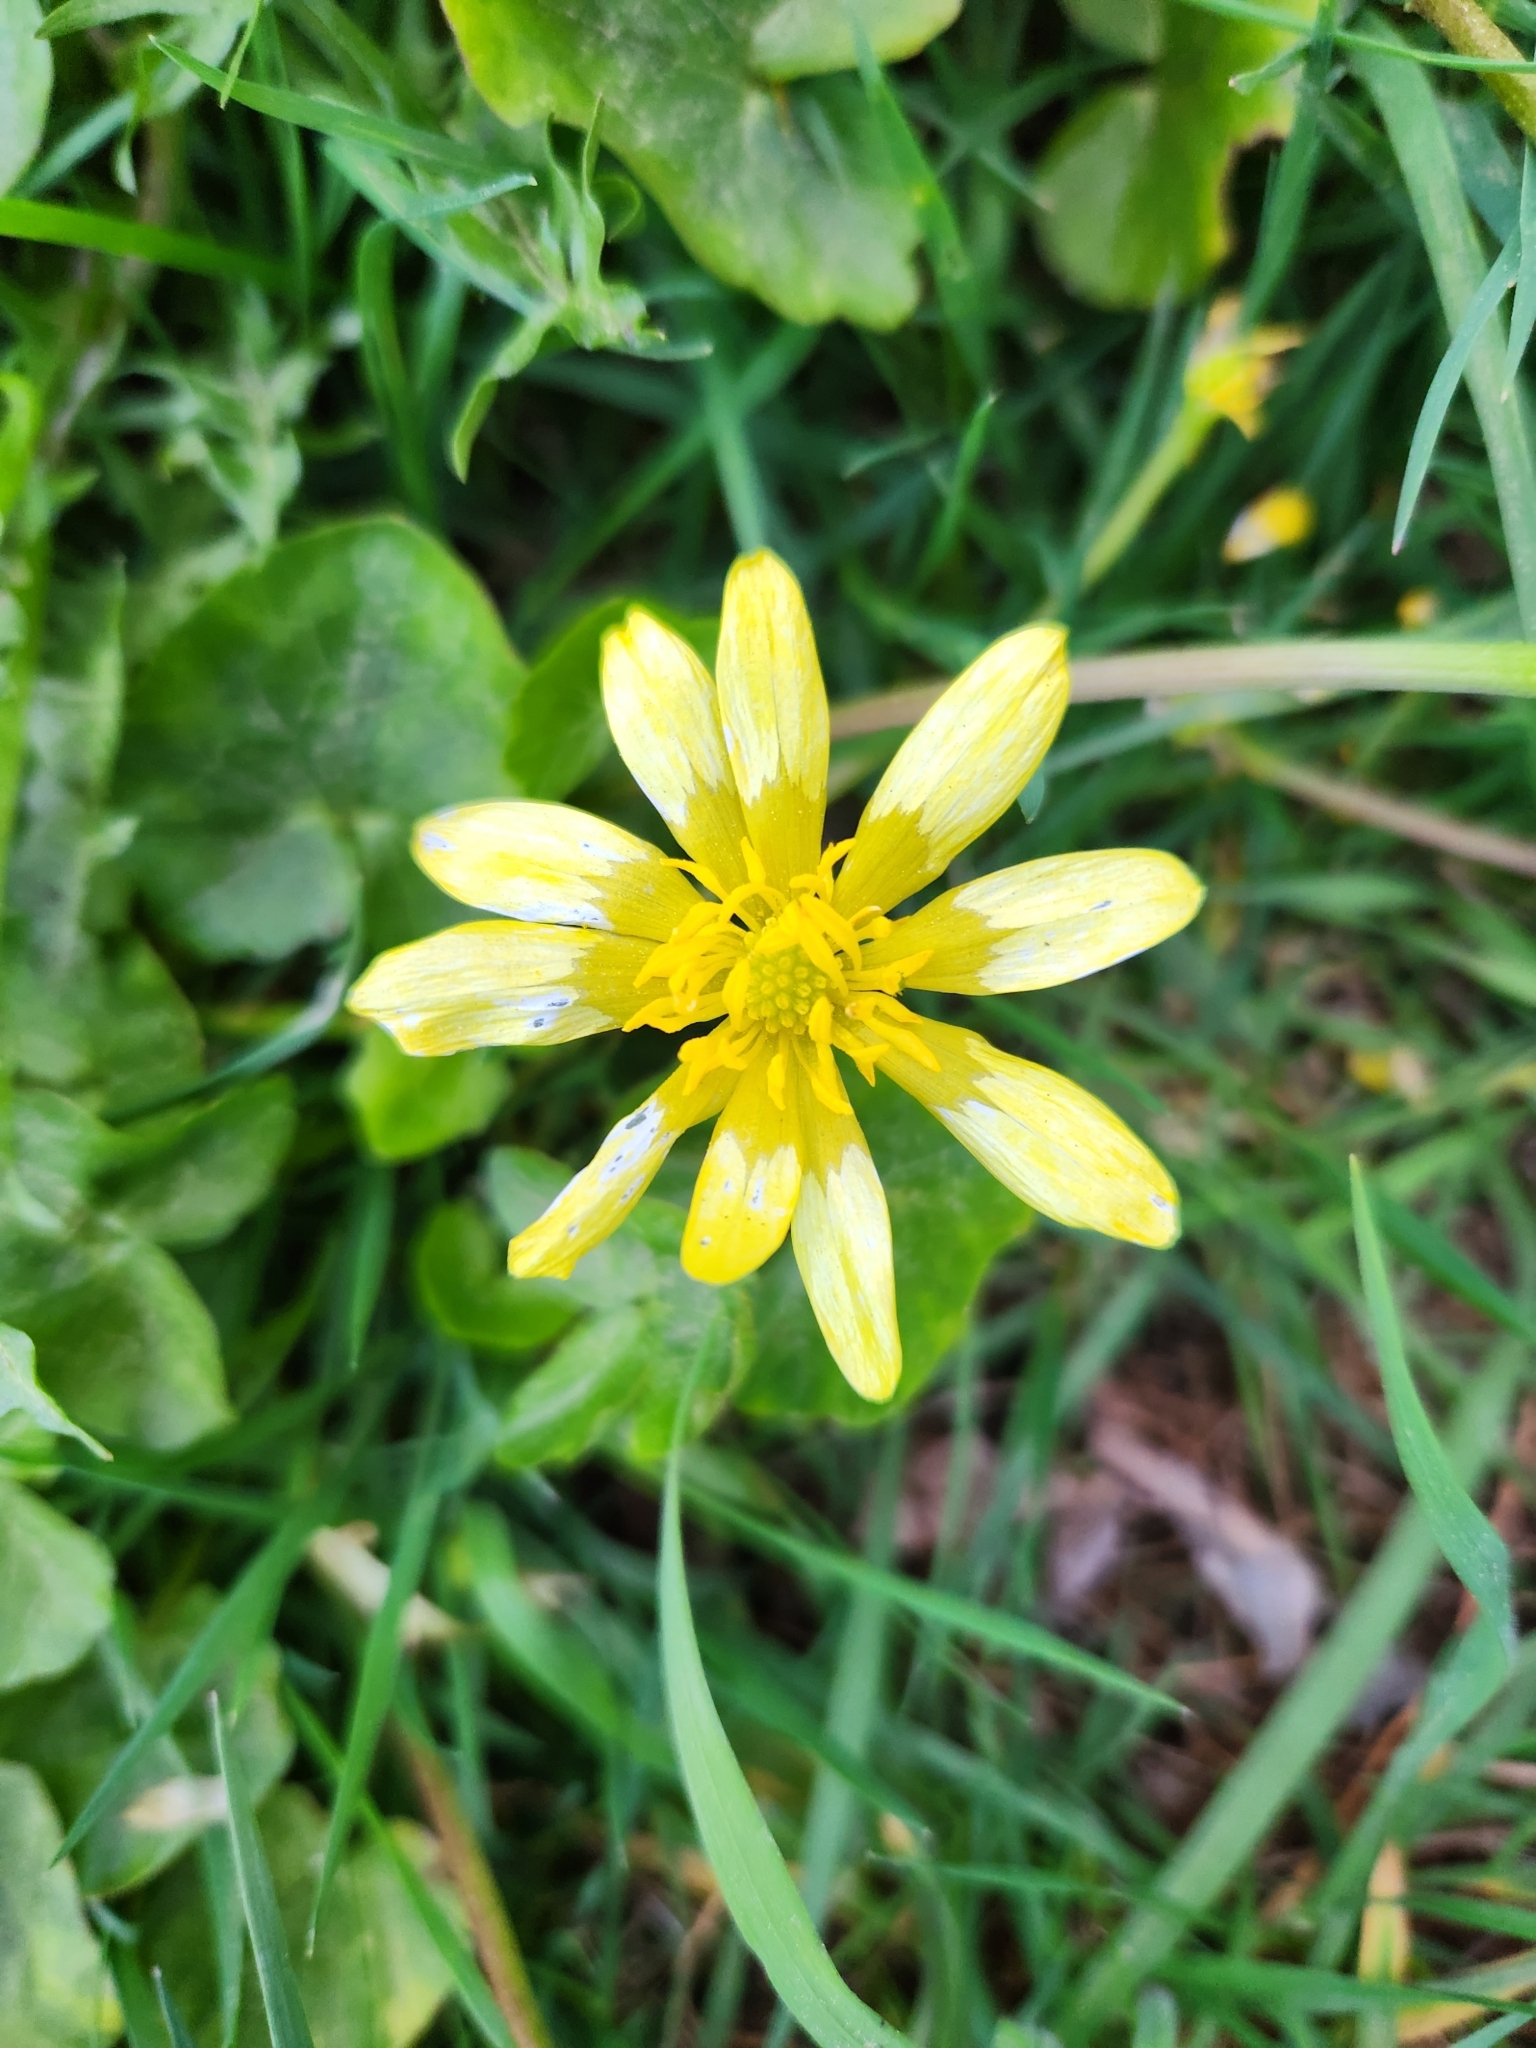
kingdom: Plantae
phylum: Tracheophyta
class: Magnoliopsida
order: Ranunculales
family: Ranunculaceae
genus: Ficaria
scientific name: Ficaria verna
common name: Lesser celandine
